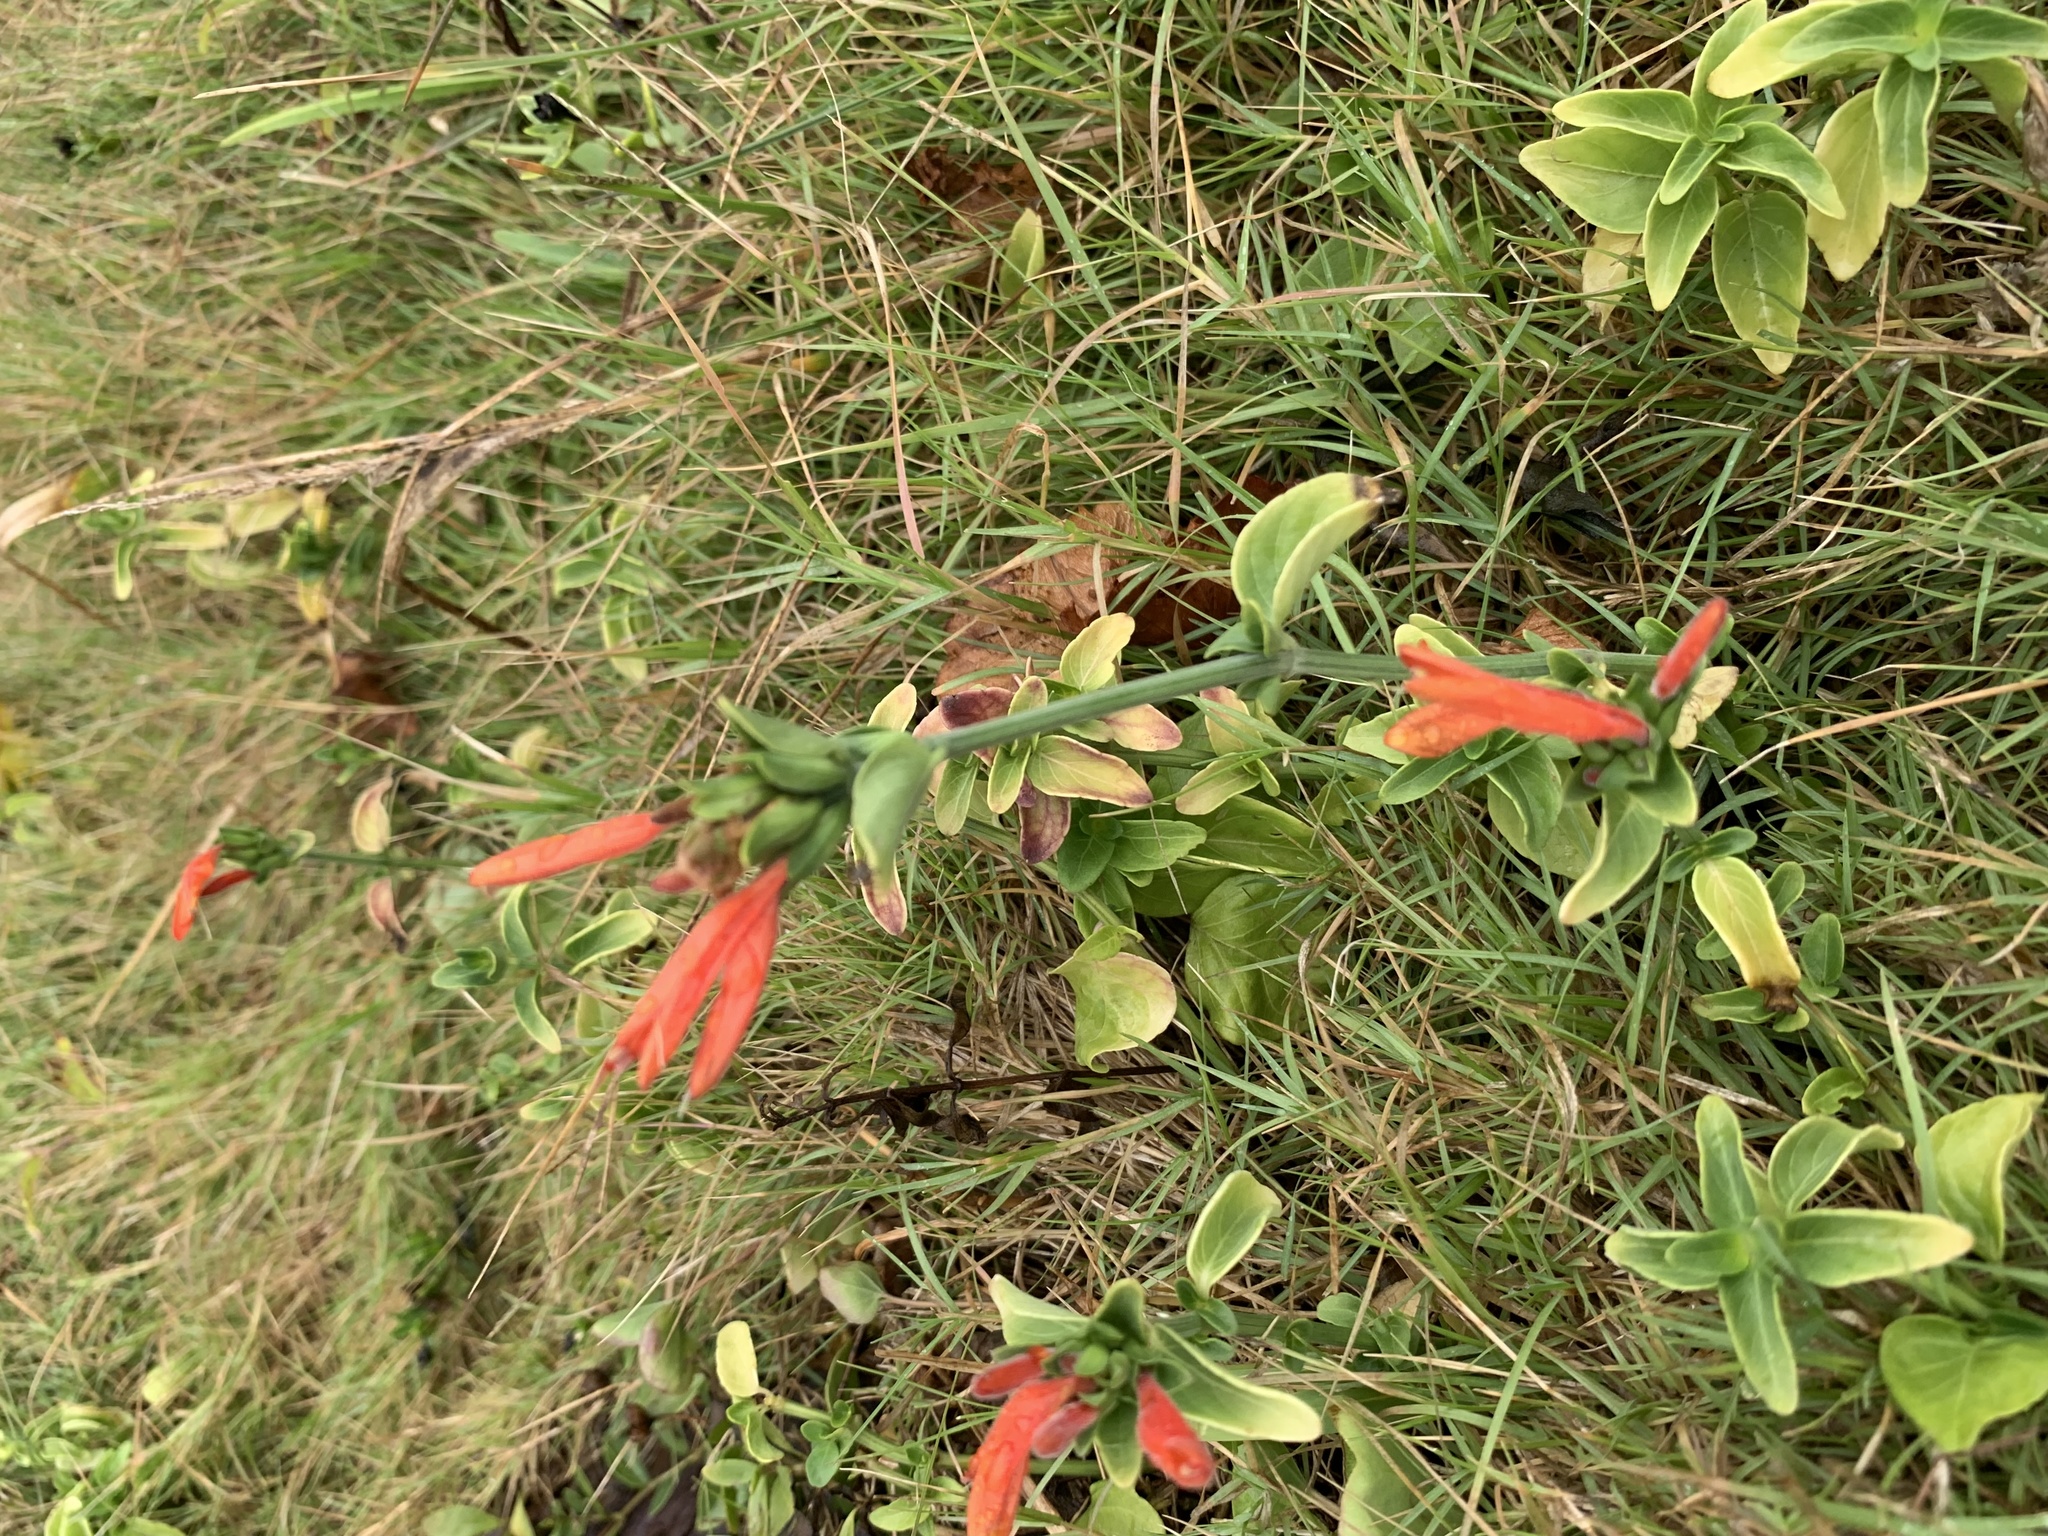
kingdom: Plantae
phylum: Tracheophyta
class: Magnoliopsida
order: Lamiales
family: Acanthaceae
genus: Dicliptera
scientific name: Dicliptera squarrosa
